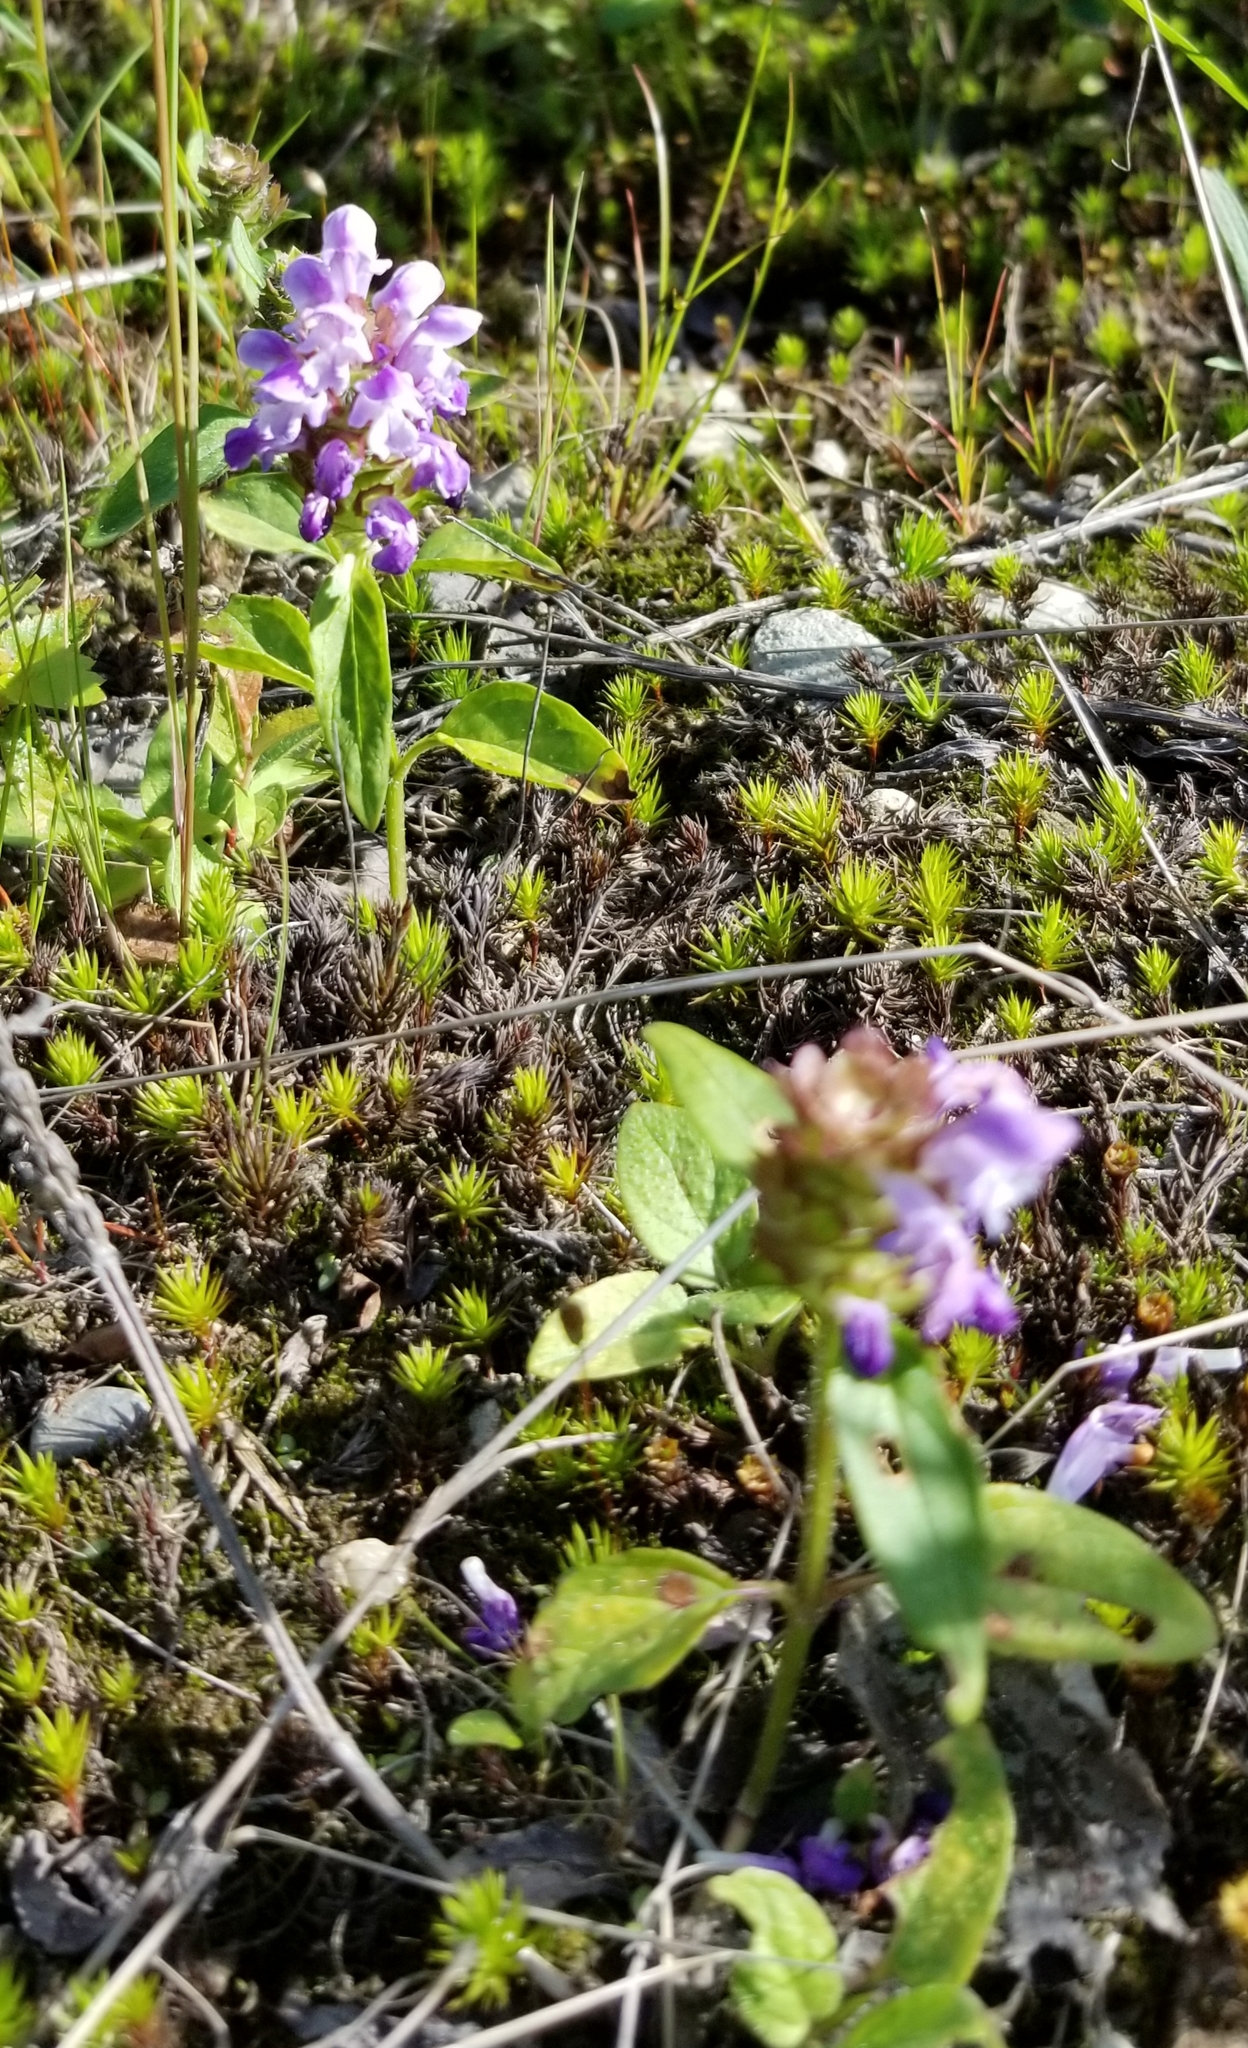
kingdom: Plantae
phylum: Tracheophyta
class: Magnoliopsida
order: Lamiales
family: Lamiaceae
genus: Prunella
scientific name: Prunella vulgaris
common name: Heal-all
